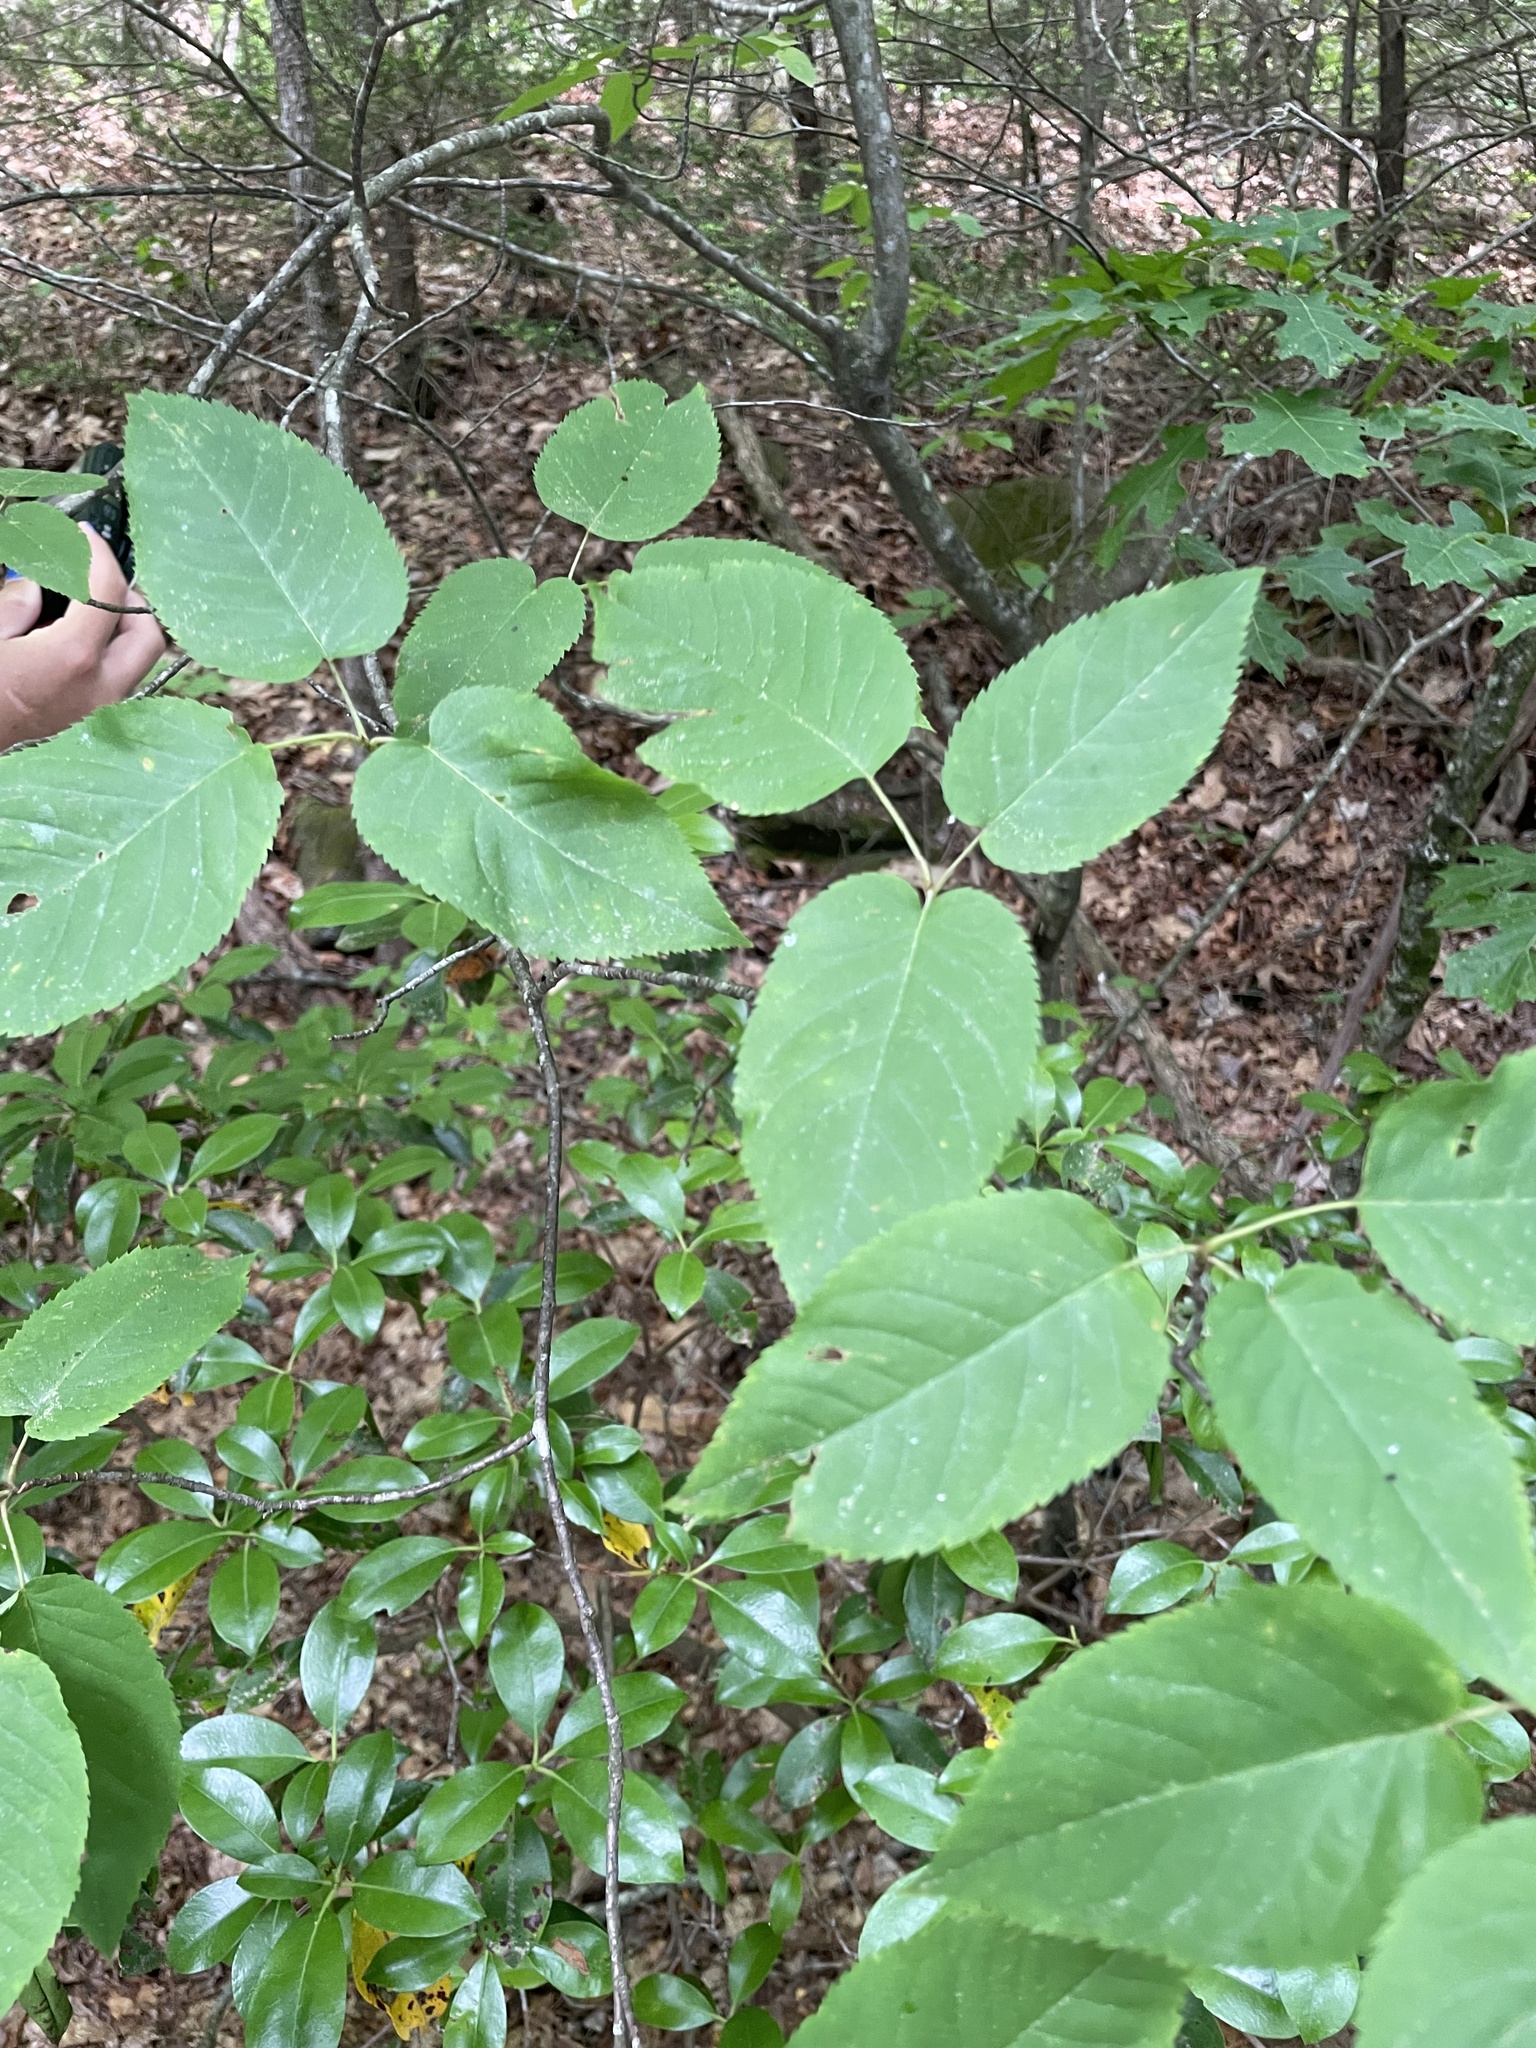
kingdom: Plantae
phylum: Tracheophyta
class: Magnoliopsida
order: Rosales
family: Rosaceae
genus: Amelanchier
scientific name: Amelanchier laevis
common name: Allegheny serviceberry
